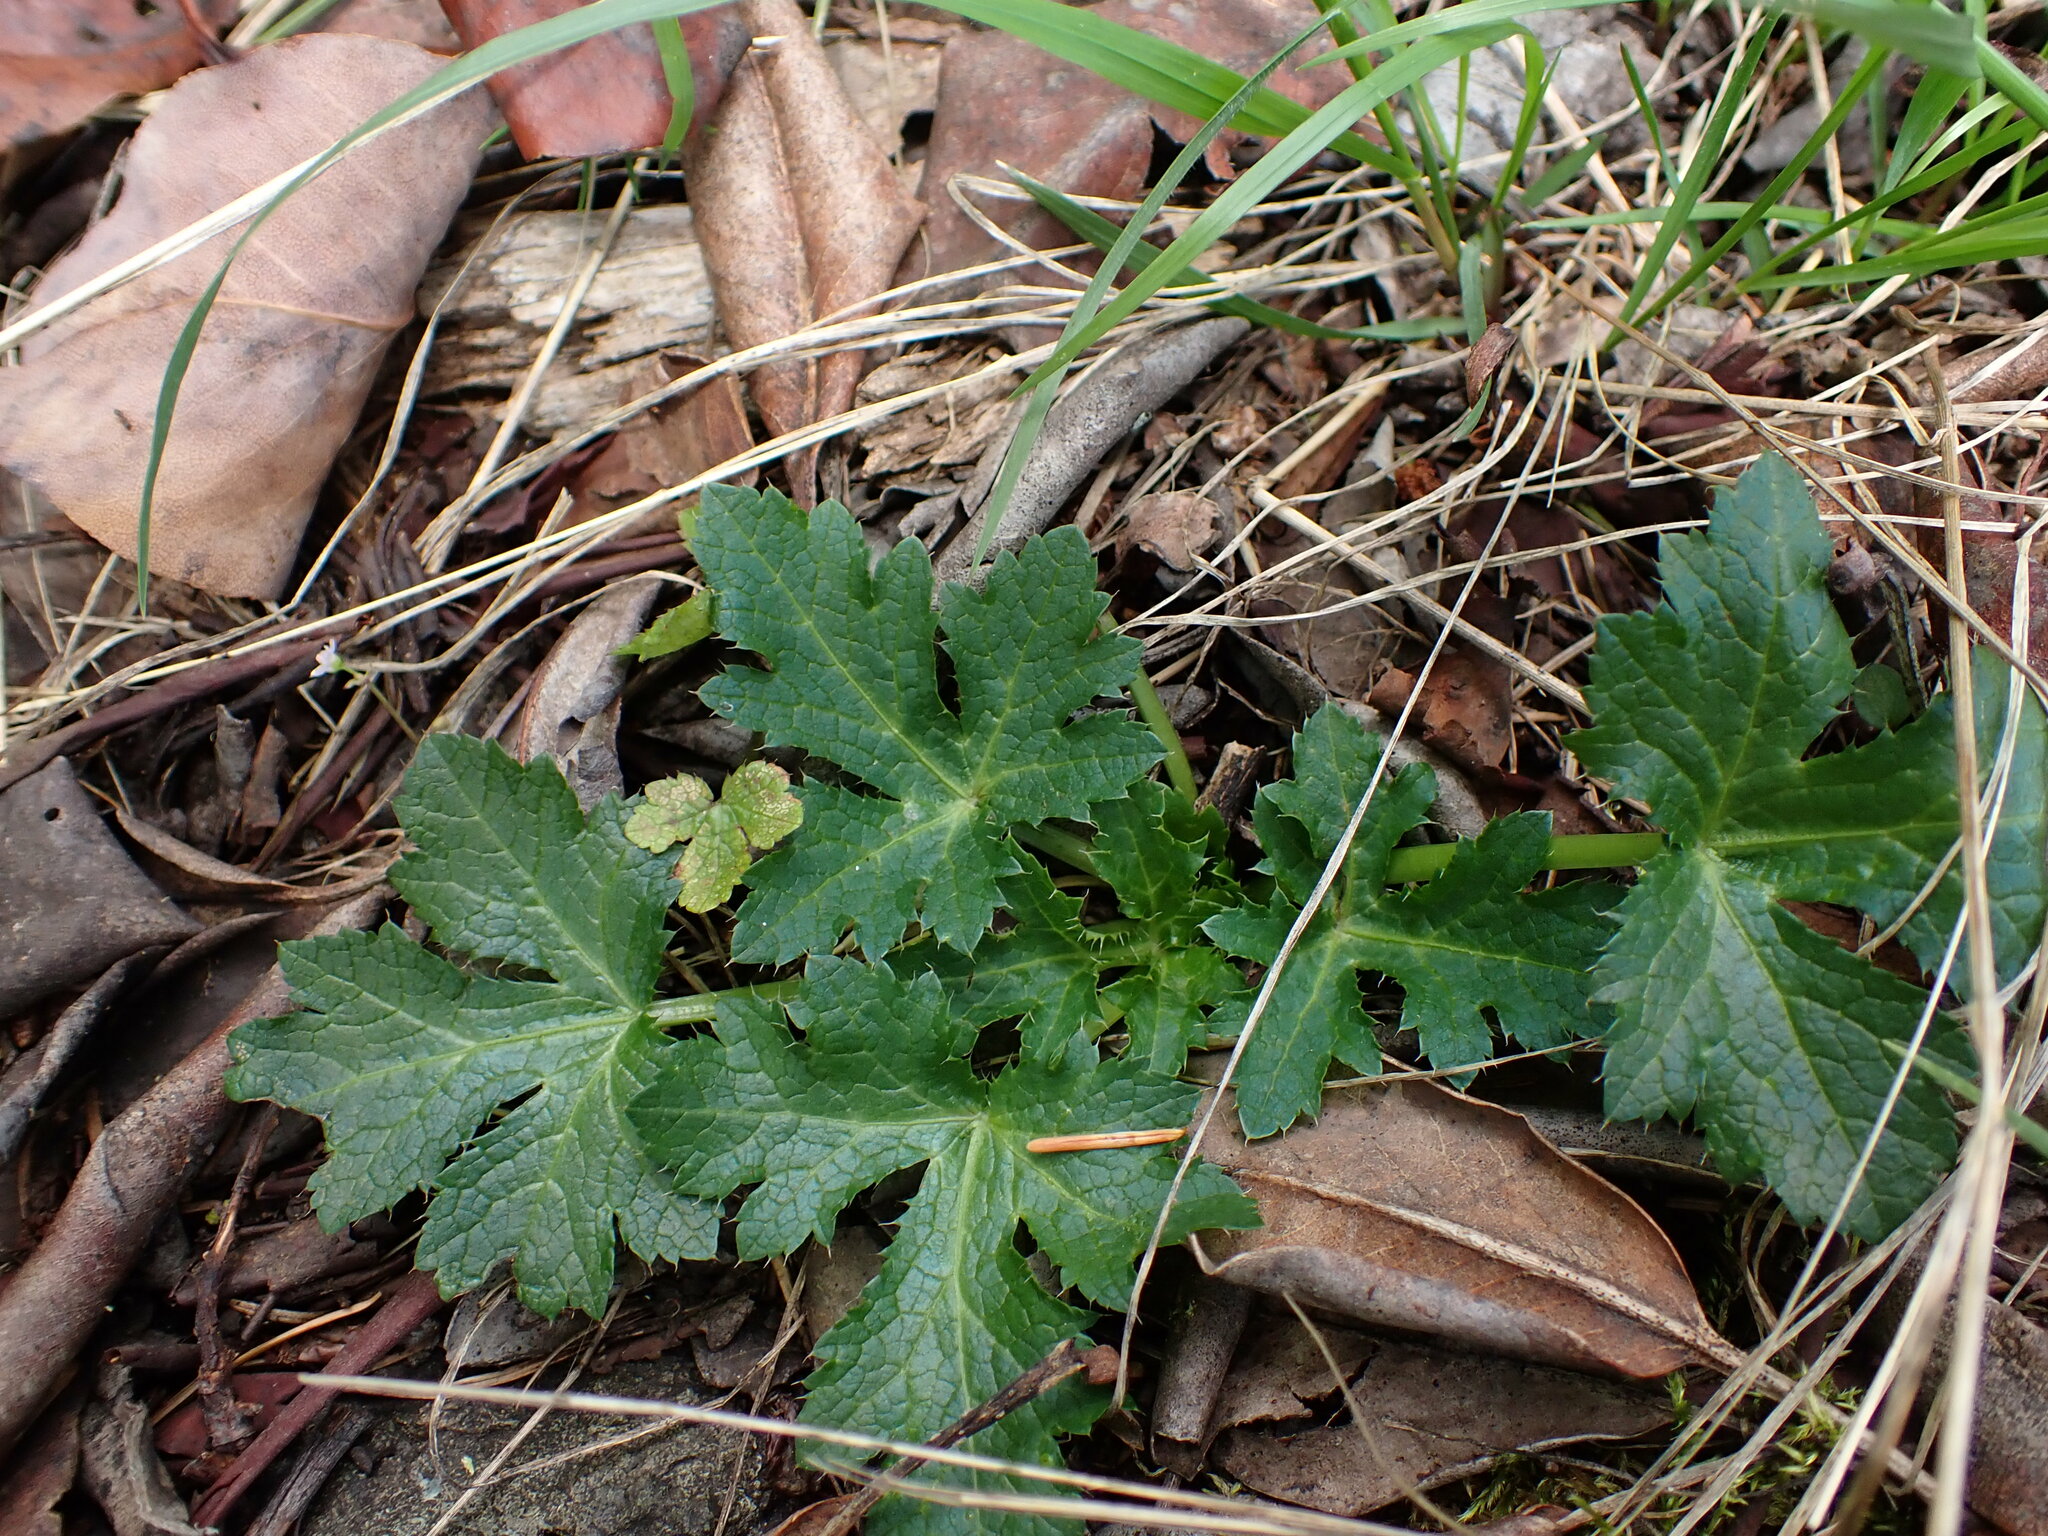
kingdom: Plantae
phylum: Tracheophyta
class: Magnoliopsida
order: Apiales
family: Apiaceae
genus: Sanicula
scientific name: Sanicula crassicaulis
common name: Western snakeroot
